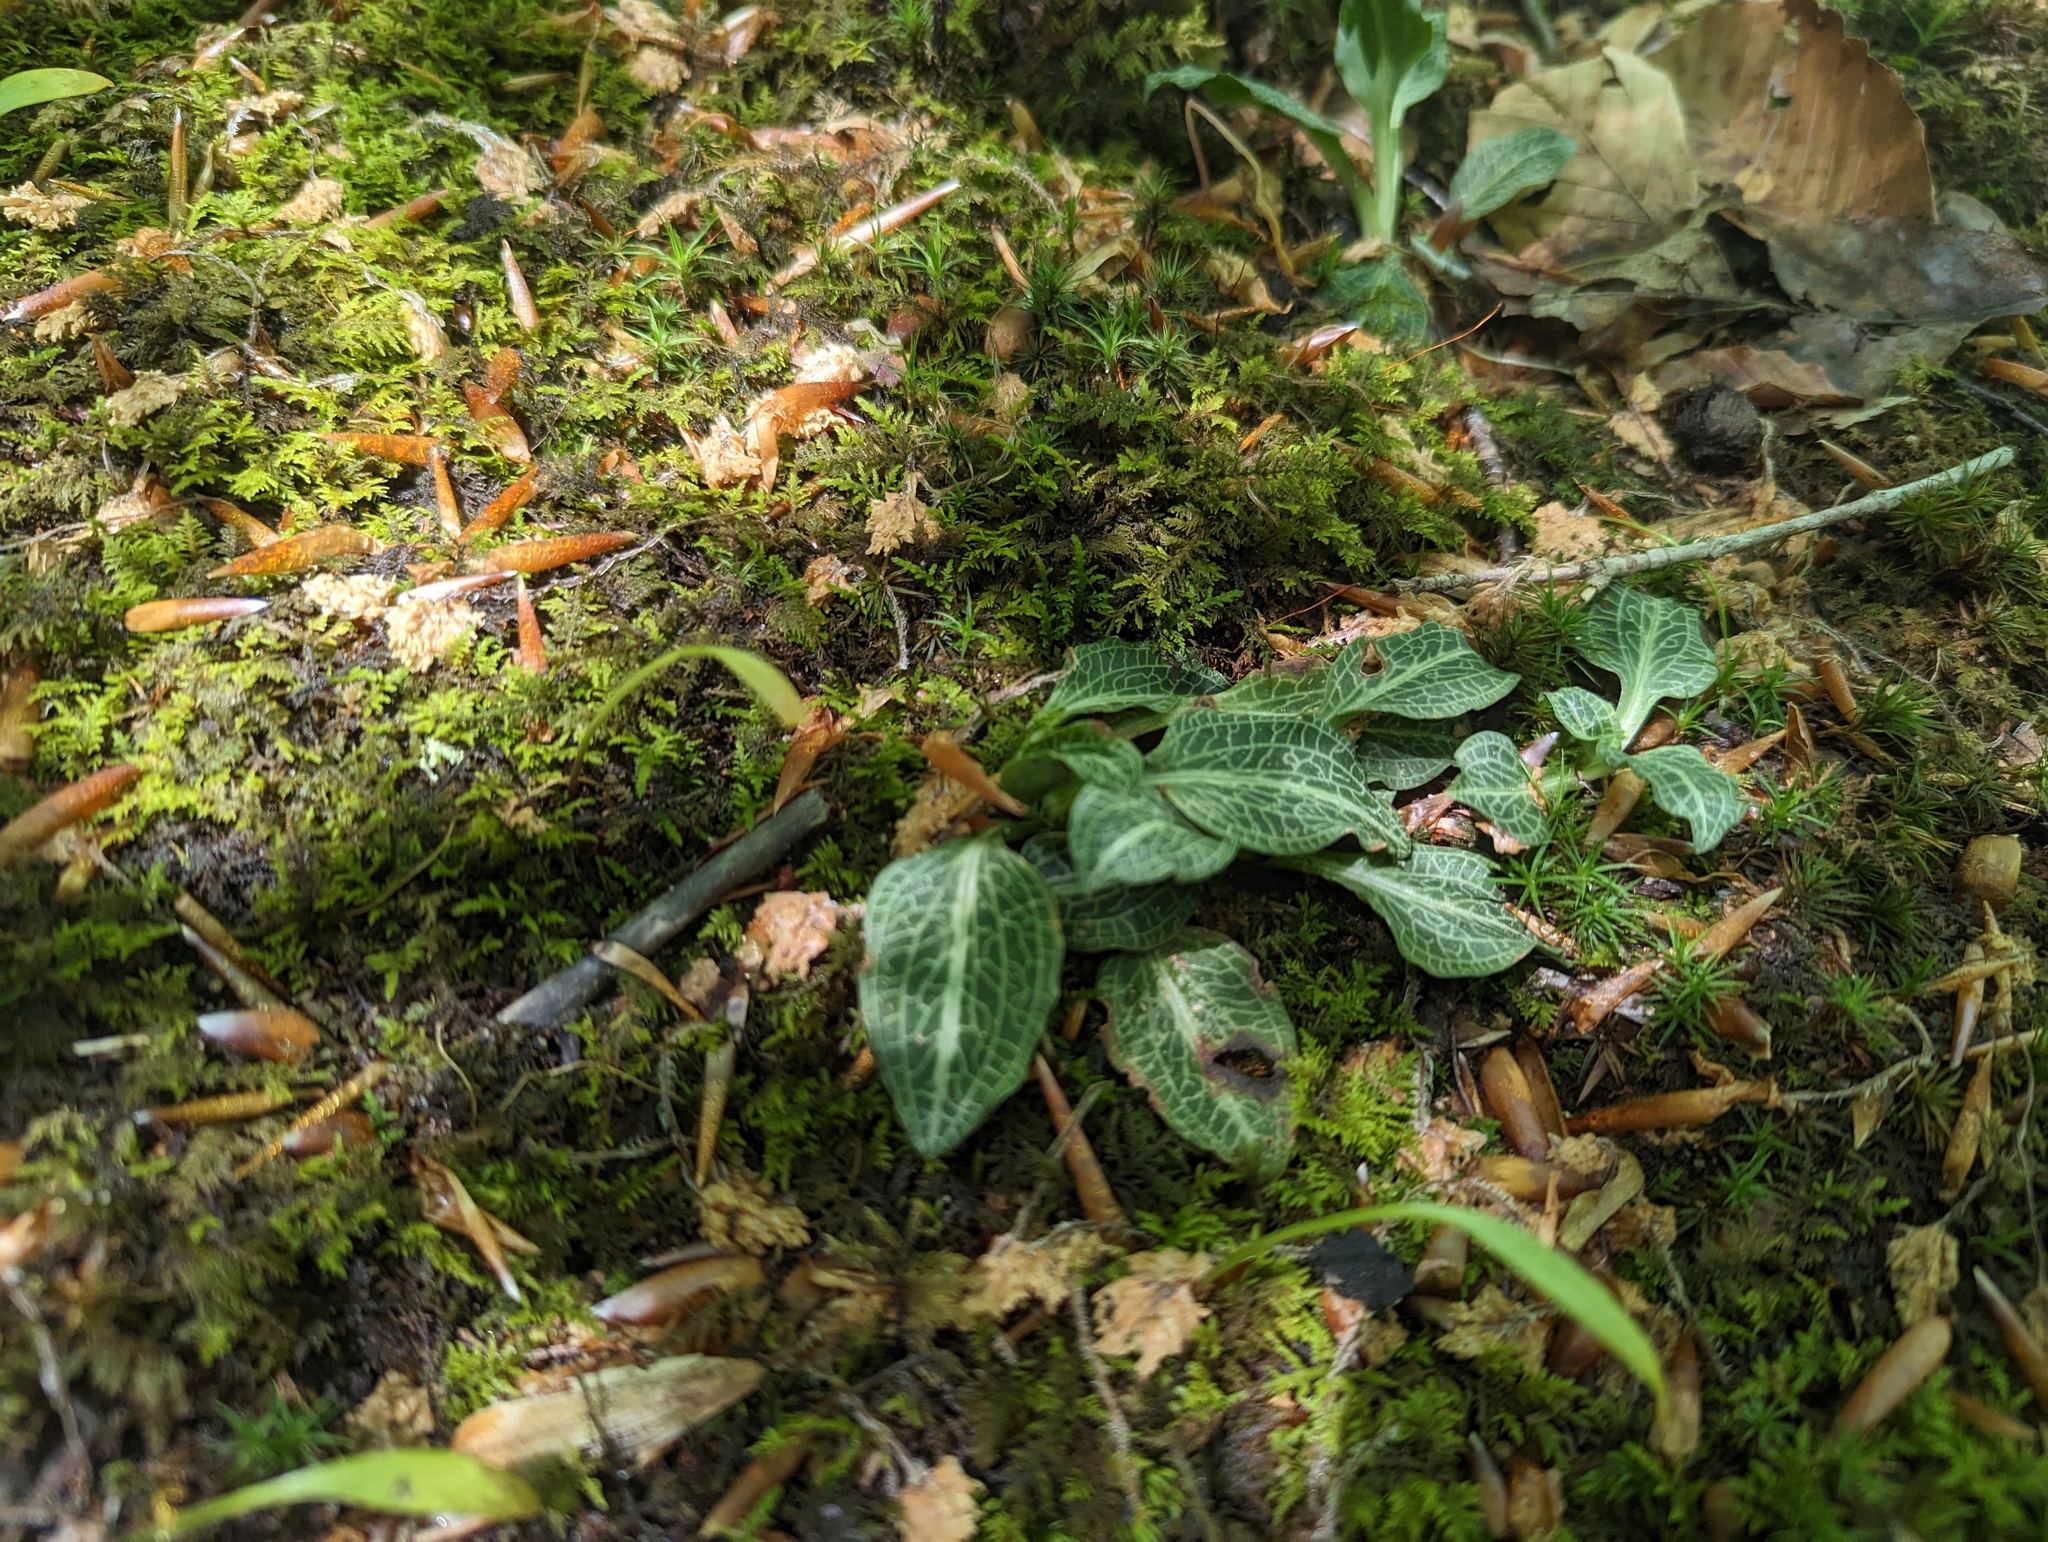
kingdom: Plantae
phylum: Tracheophyta
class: Liliopsida
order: Asparagales
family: Orchidaceae
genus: Goodyera
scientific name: Goodyera pubescens
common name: Downy rattlesnake-plantain
